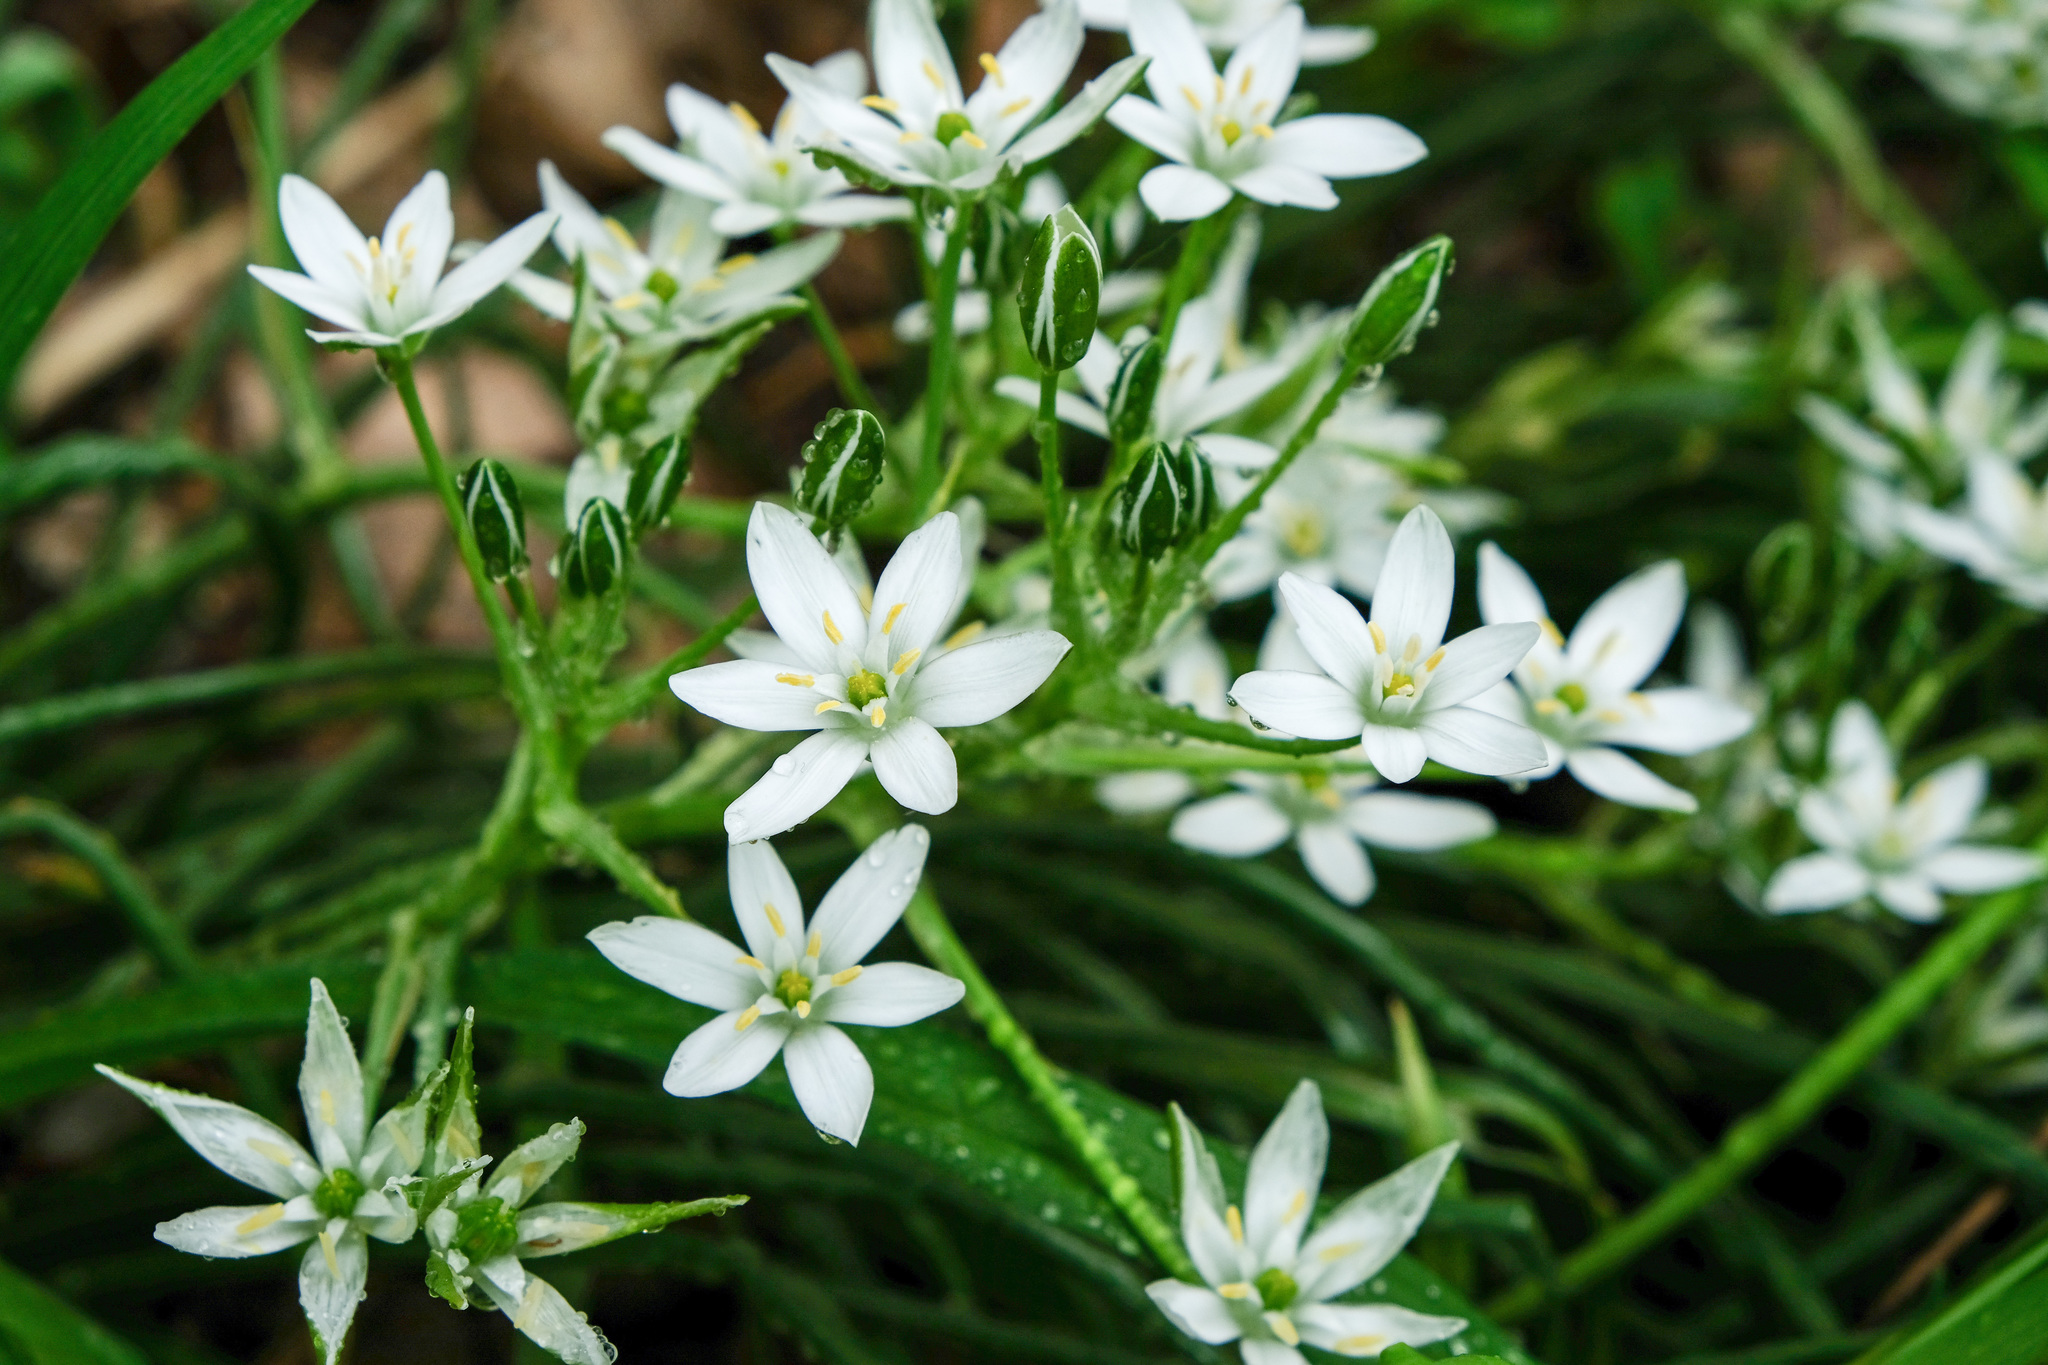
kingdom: Plantae
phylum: Tracheophyta
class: Liliopsida
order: Asparagales
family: Asparagaceae
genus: Ornithogalum
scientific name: Ornithogalum umbellatum
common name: Garden star-of-bethlehem
